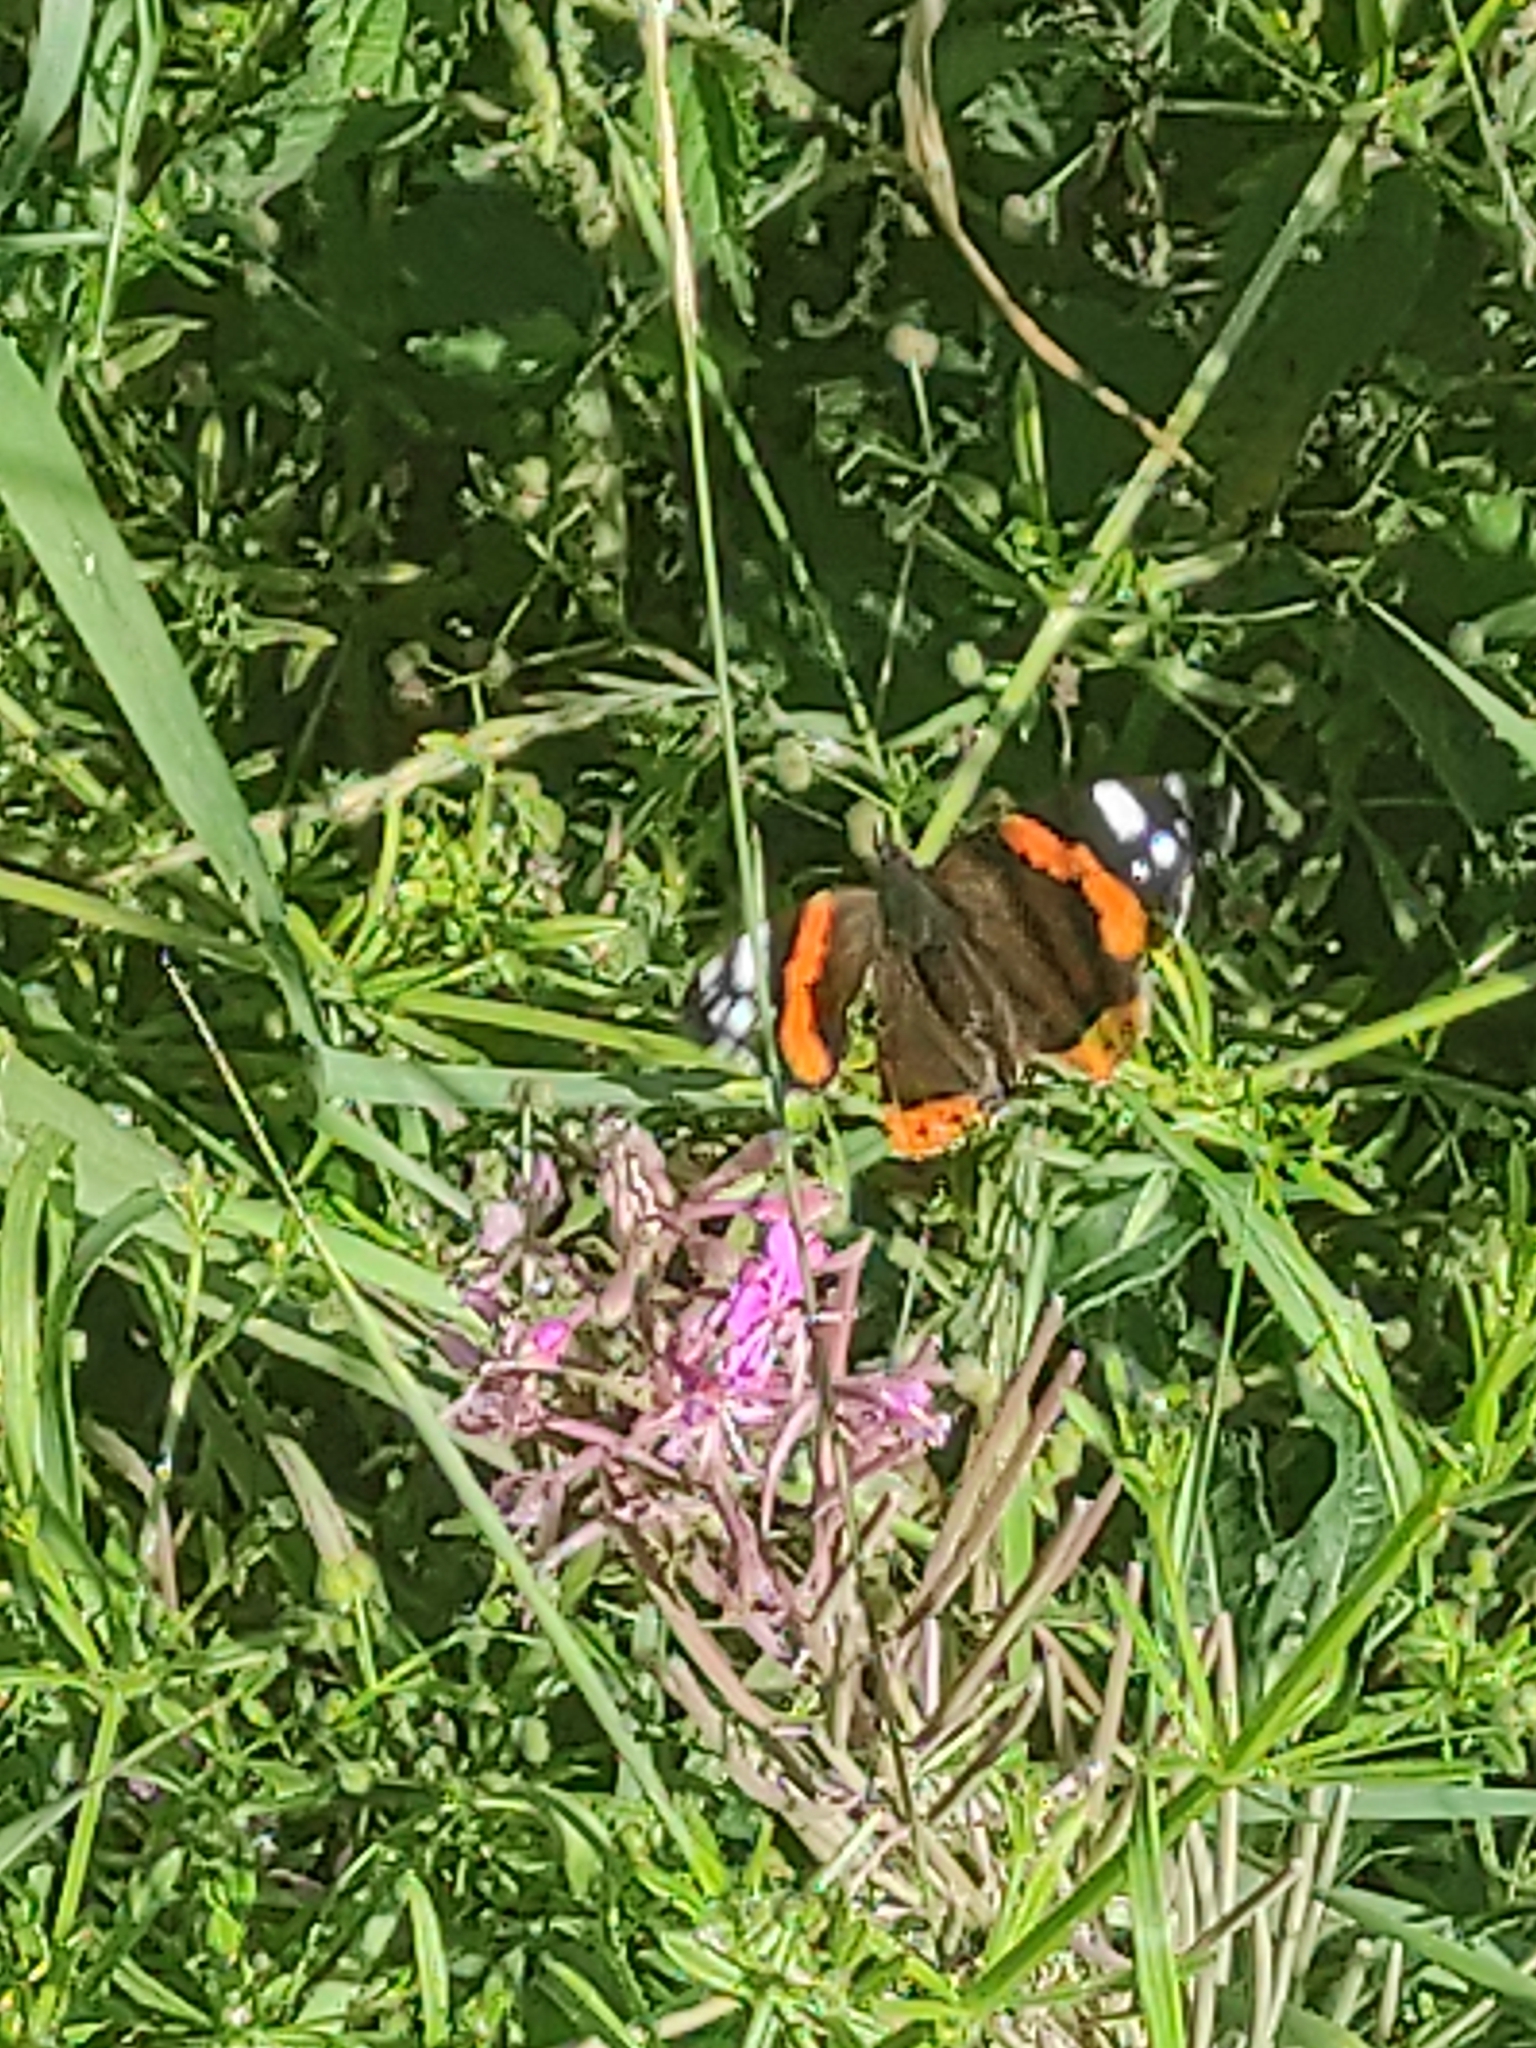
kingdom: Animalia
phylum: Arthropoda
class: Insecta
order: Lepidoptera
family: Nymphalidae
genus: Vanessa
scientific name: Vanessa atalanta
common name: Red admiral
